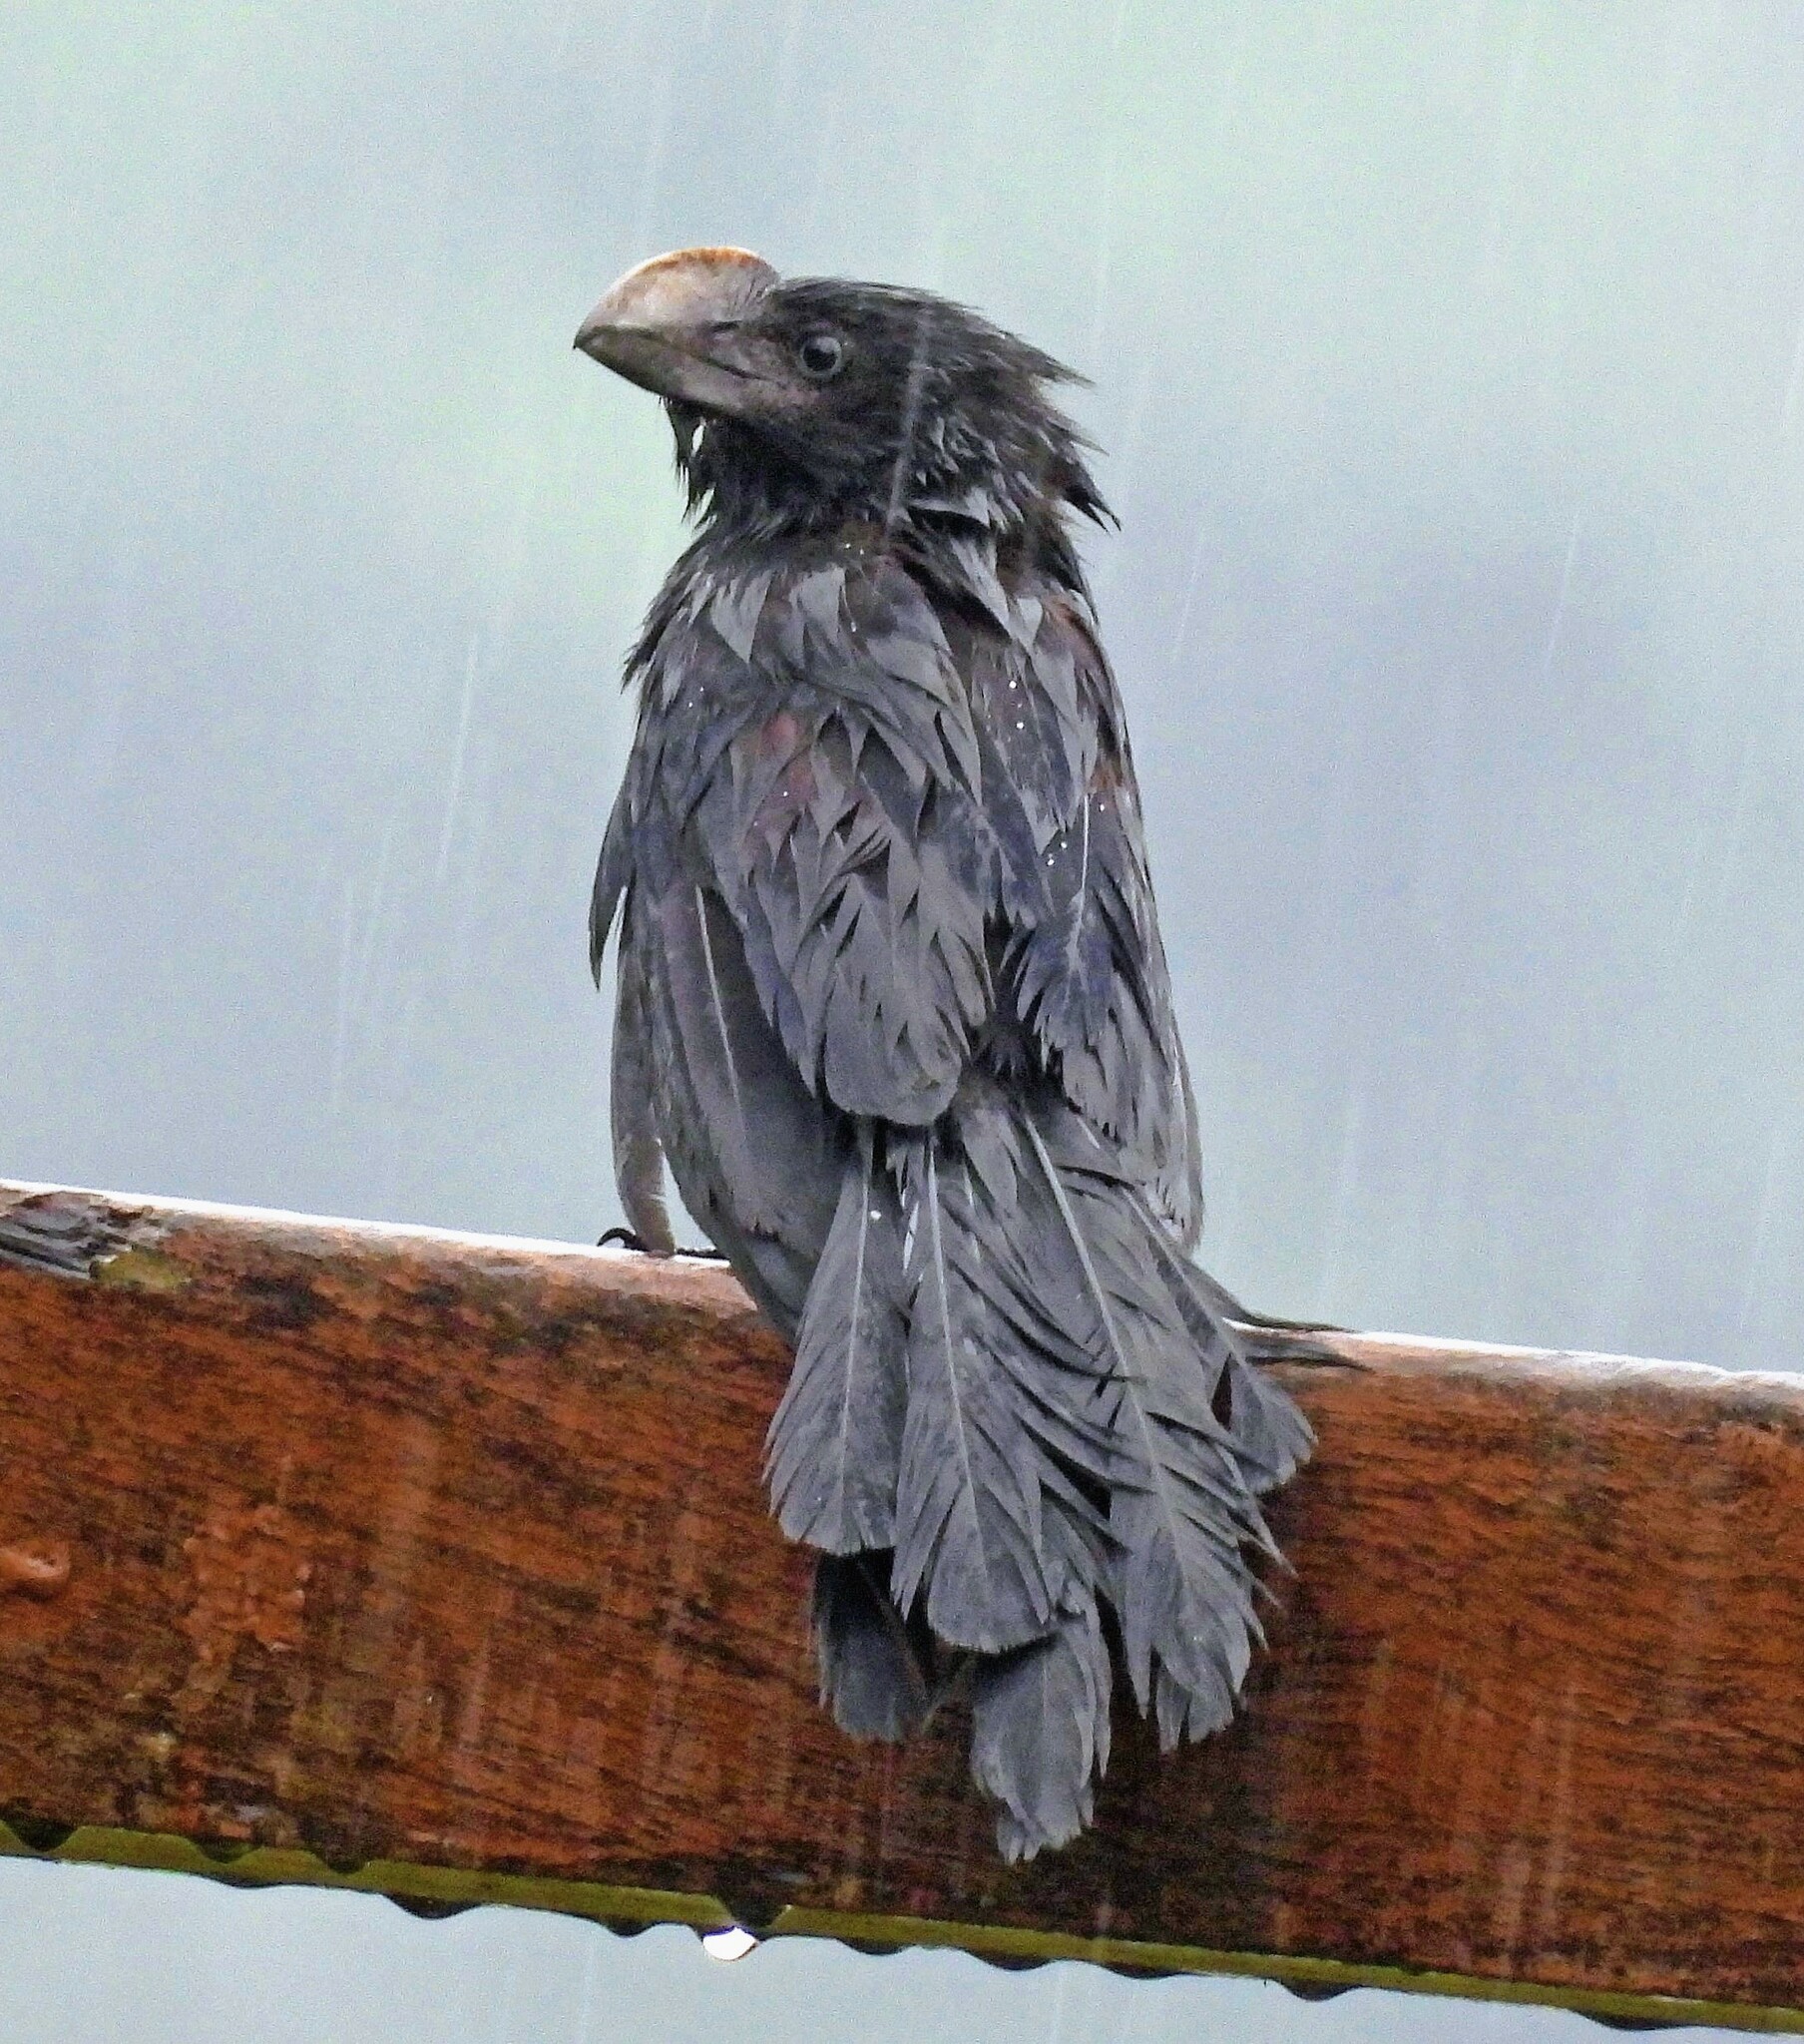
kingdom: Animalia
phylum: Chordata
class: Aves
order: Cuculiformes
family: Cuculidae
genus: Crotophaga
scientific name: Crotophaga ani
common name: Smooth-billed ani
